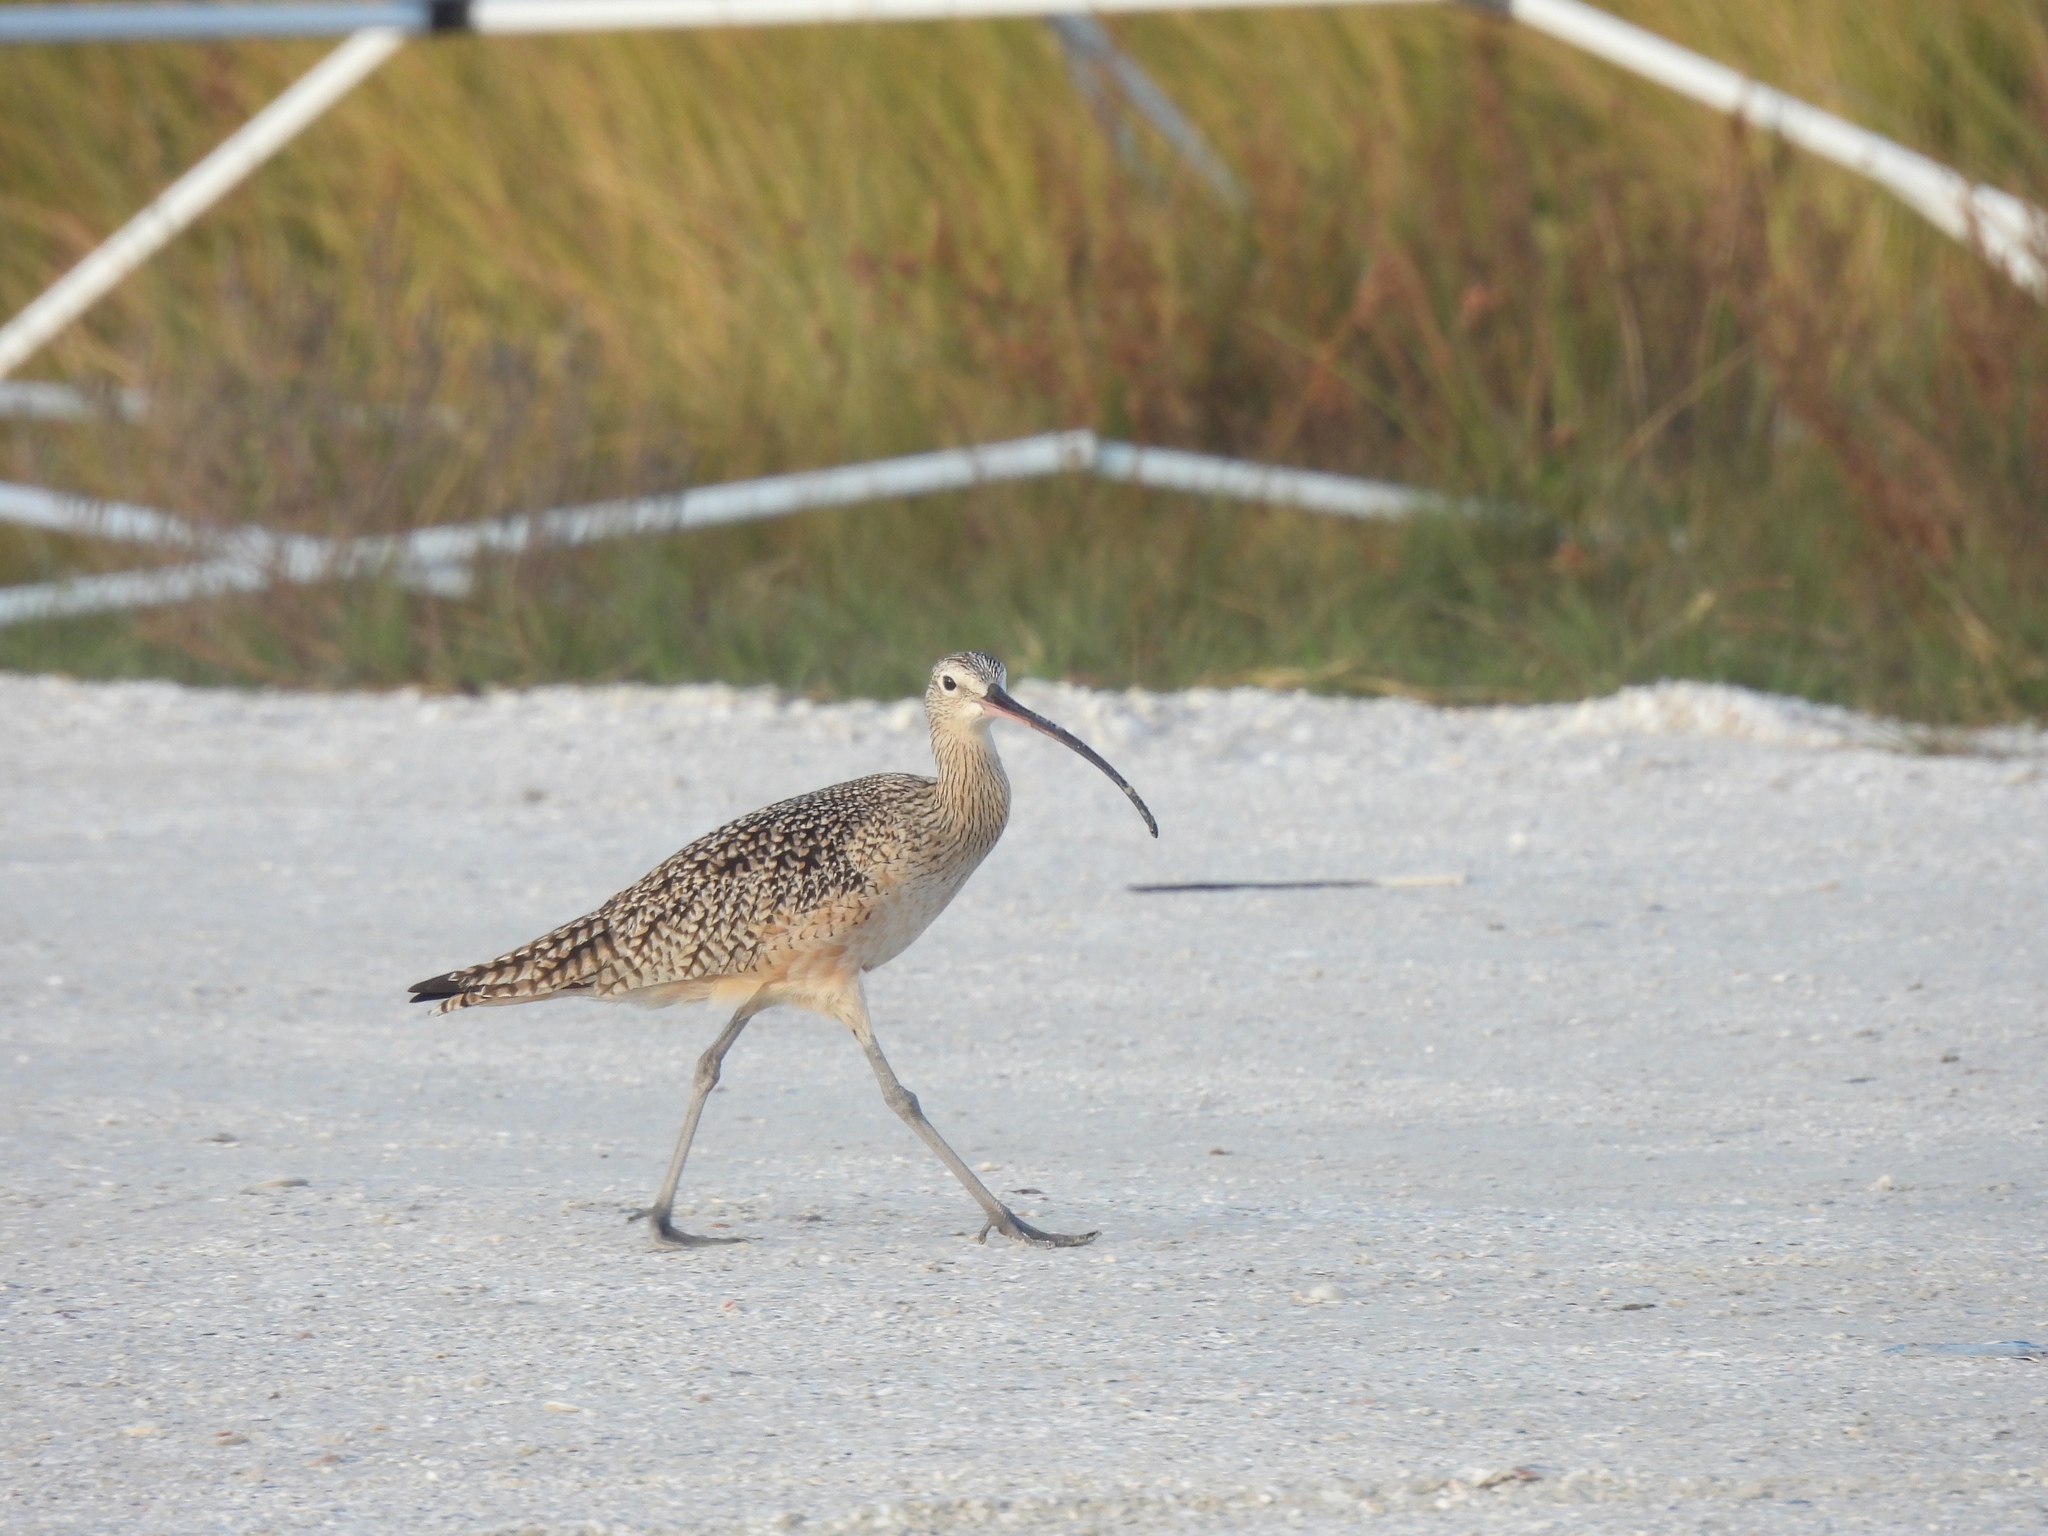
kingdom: Animalia
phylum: Chordata
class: Aves
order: Charadriiformes
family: Scolopacidae
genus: Numenius
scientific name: Numenius americanus
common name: Long-billed curlew
